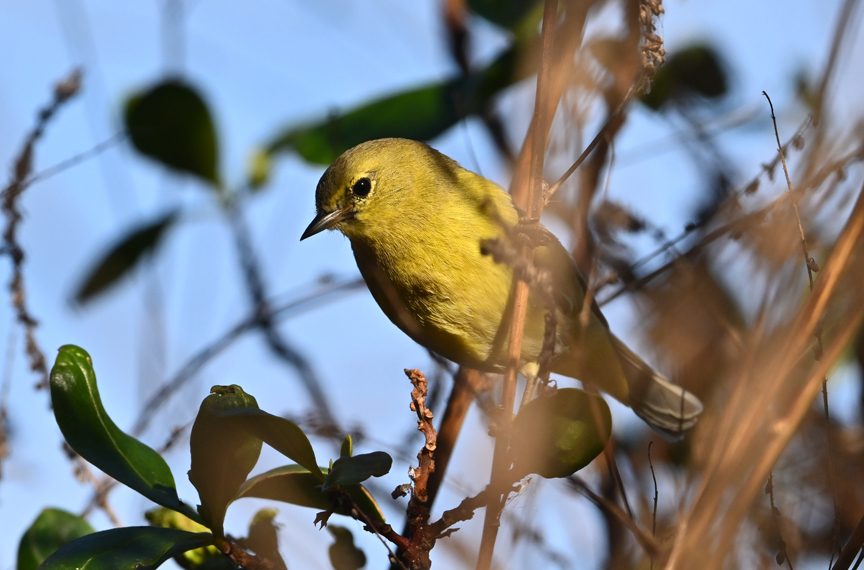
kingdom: Animalia
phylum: Chordata
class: Aves
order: Passeriformes
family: Parulidae
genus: Leiothlypis
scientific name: Leiothlypis celata
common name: Orange-crowned warbler
